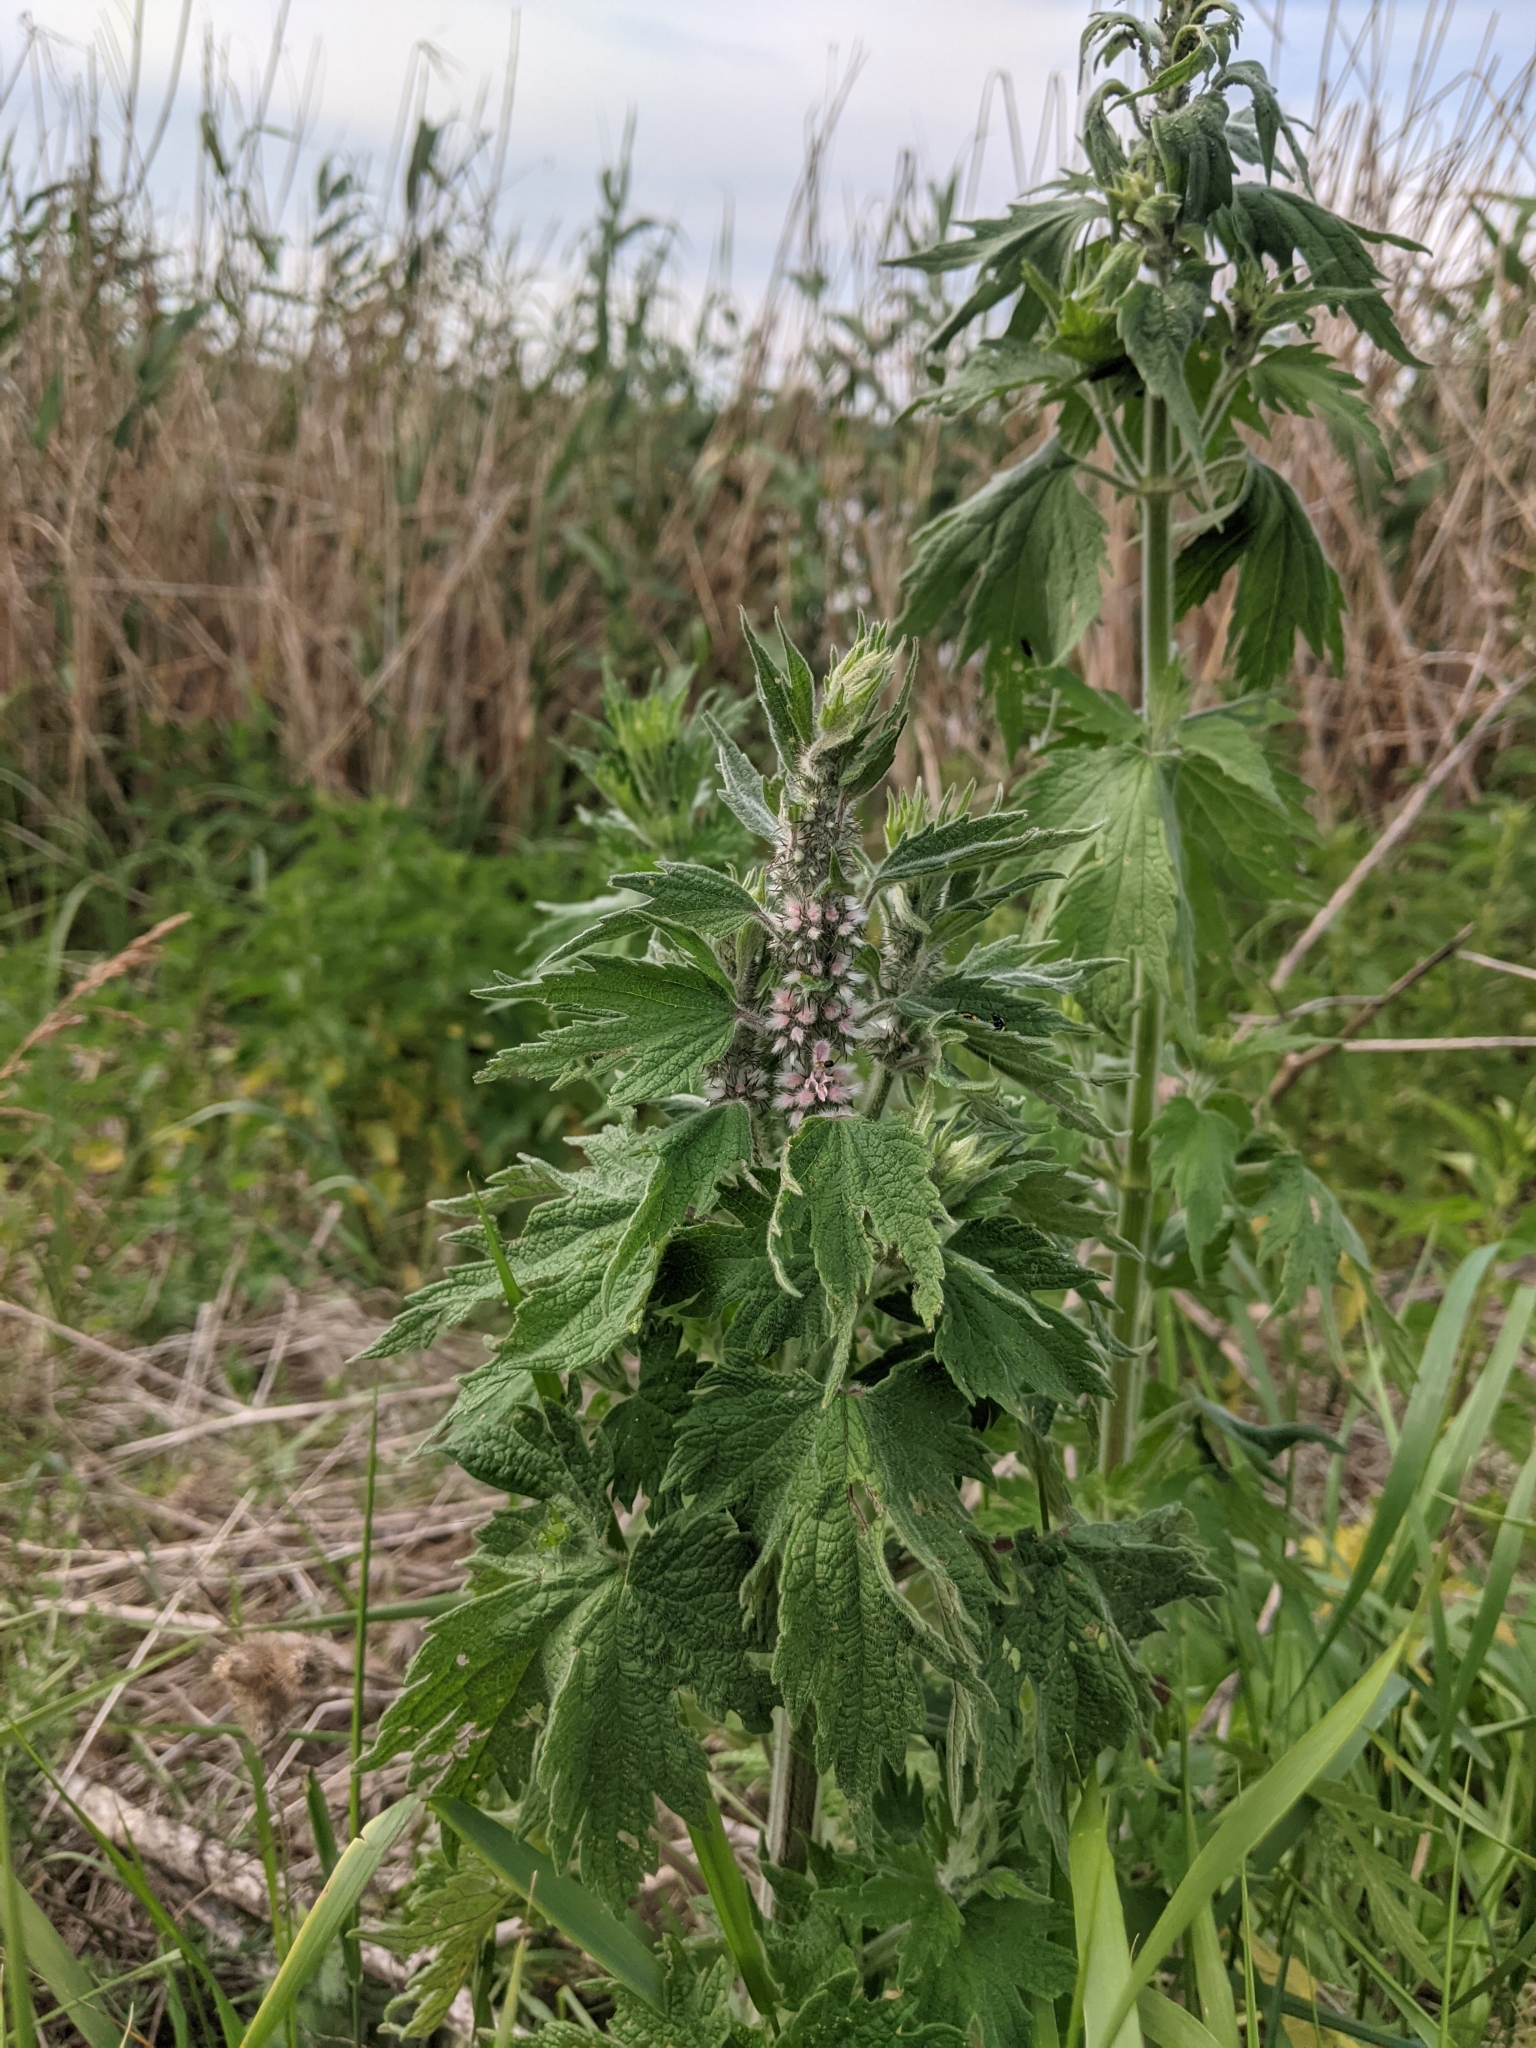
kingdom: Plantae
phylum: Tracheophyta
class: Magnoliopsida
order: Lamiales
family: Lamiaceae
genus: Leonurus
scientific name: Leonurus cardiaca
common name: Motherwort
